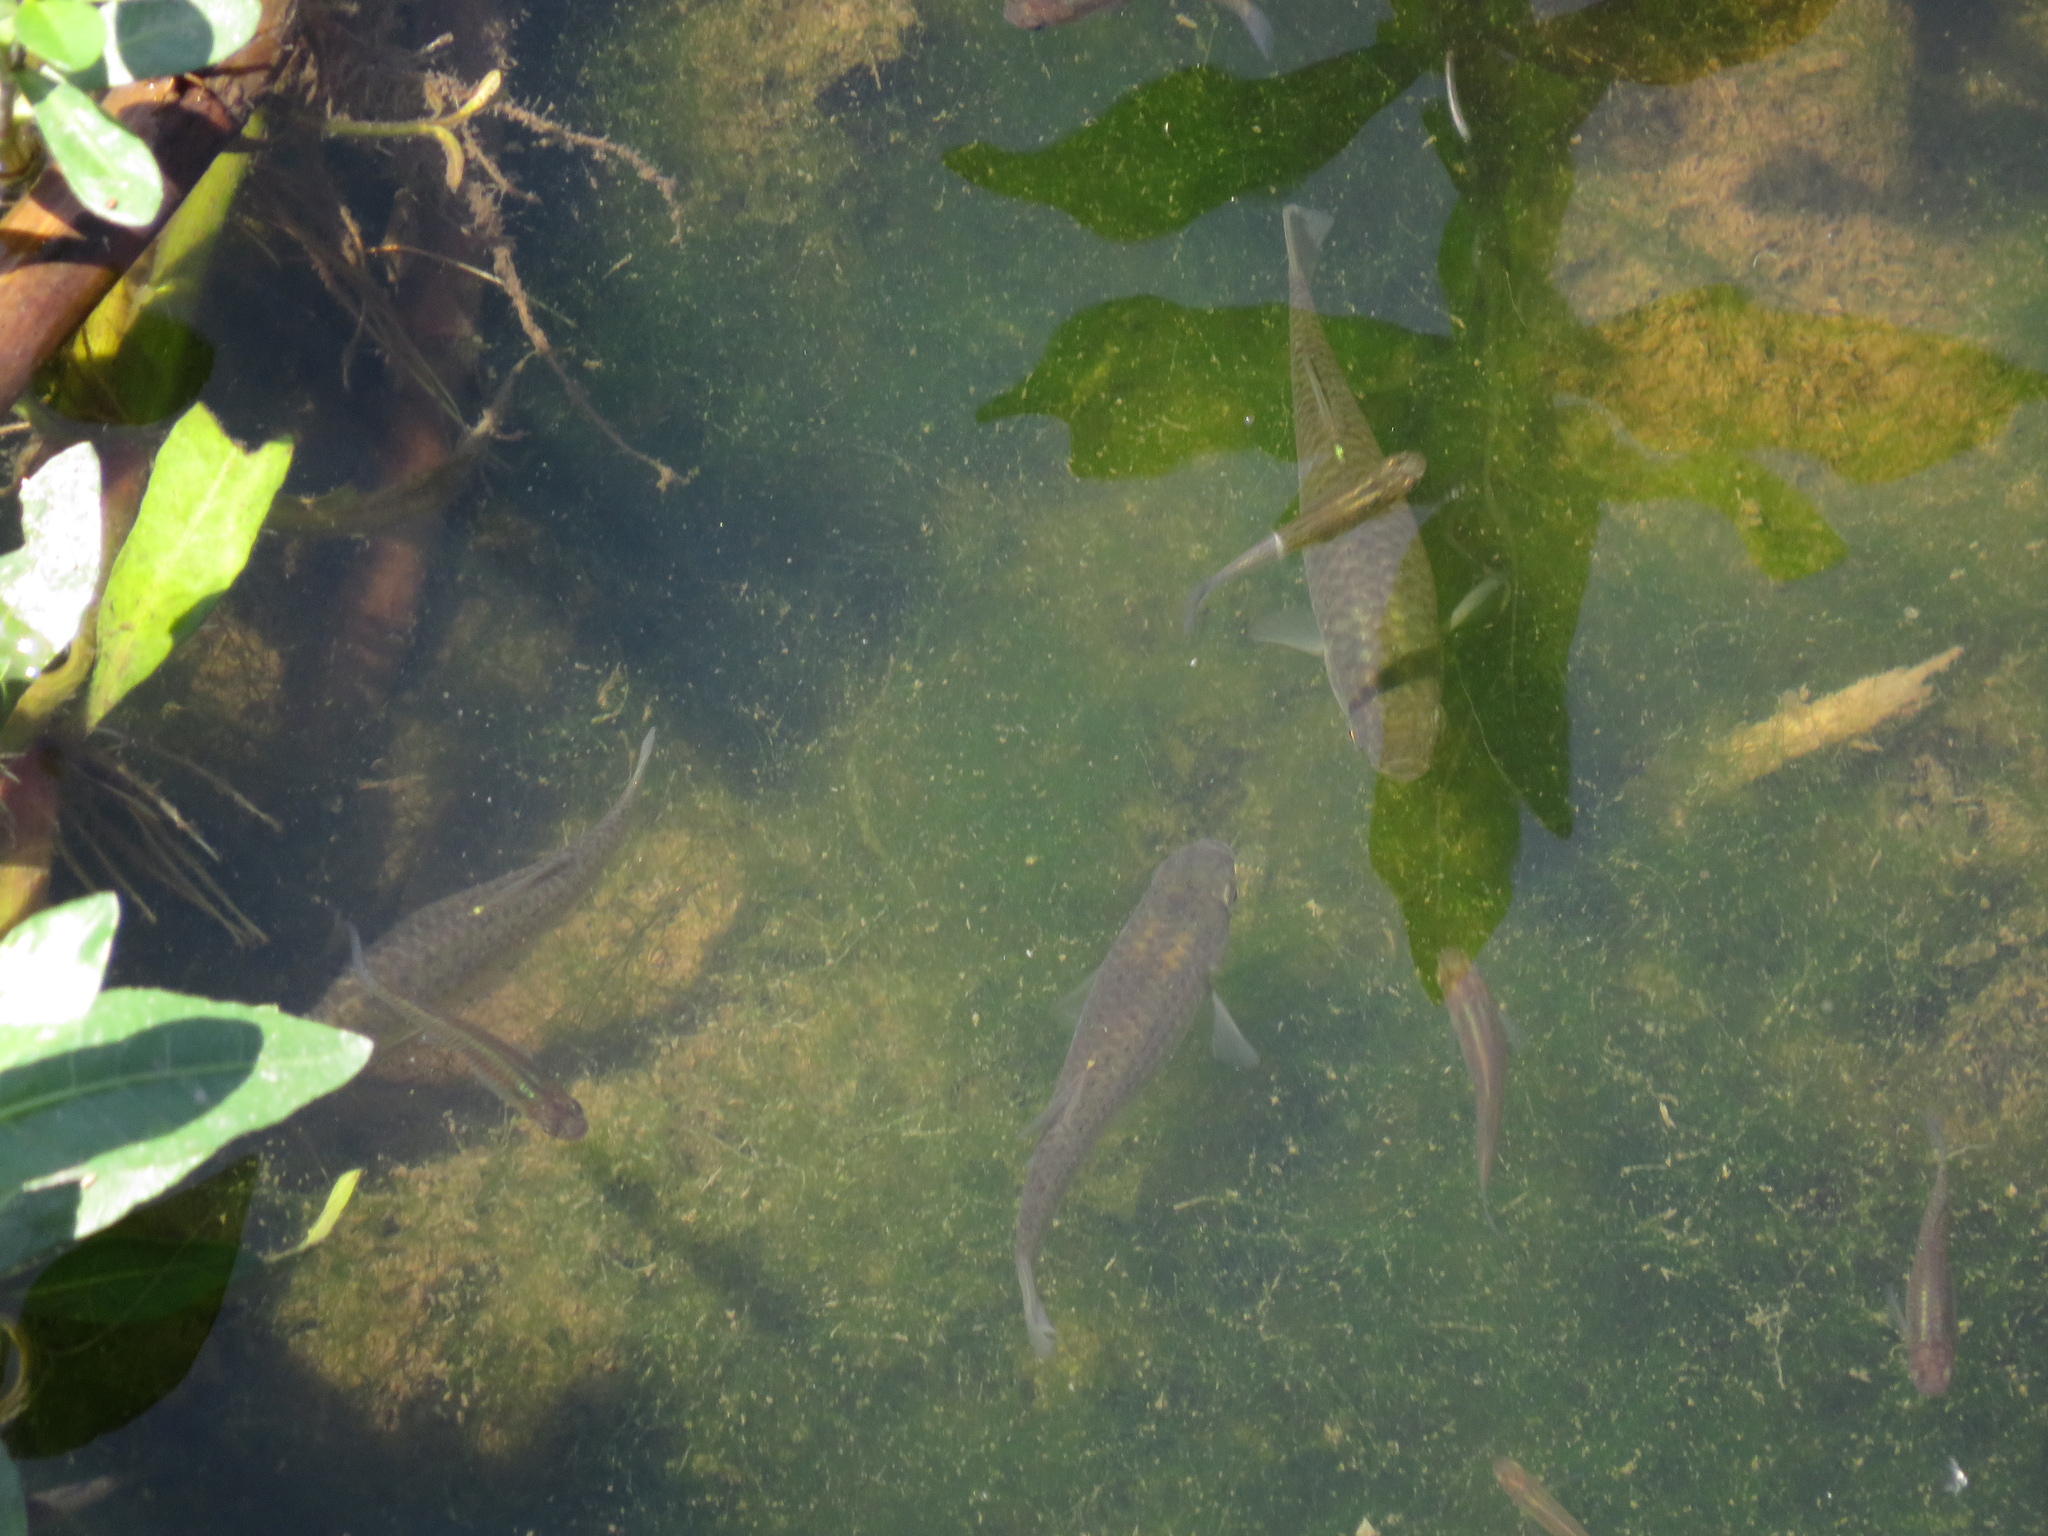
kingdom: Animalia
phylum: Chordata
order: Cyprinodontiformes
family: Anablepidae
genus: Jenynsia
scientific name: Jenynsia lineata
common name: Onesided livebearer
